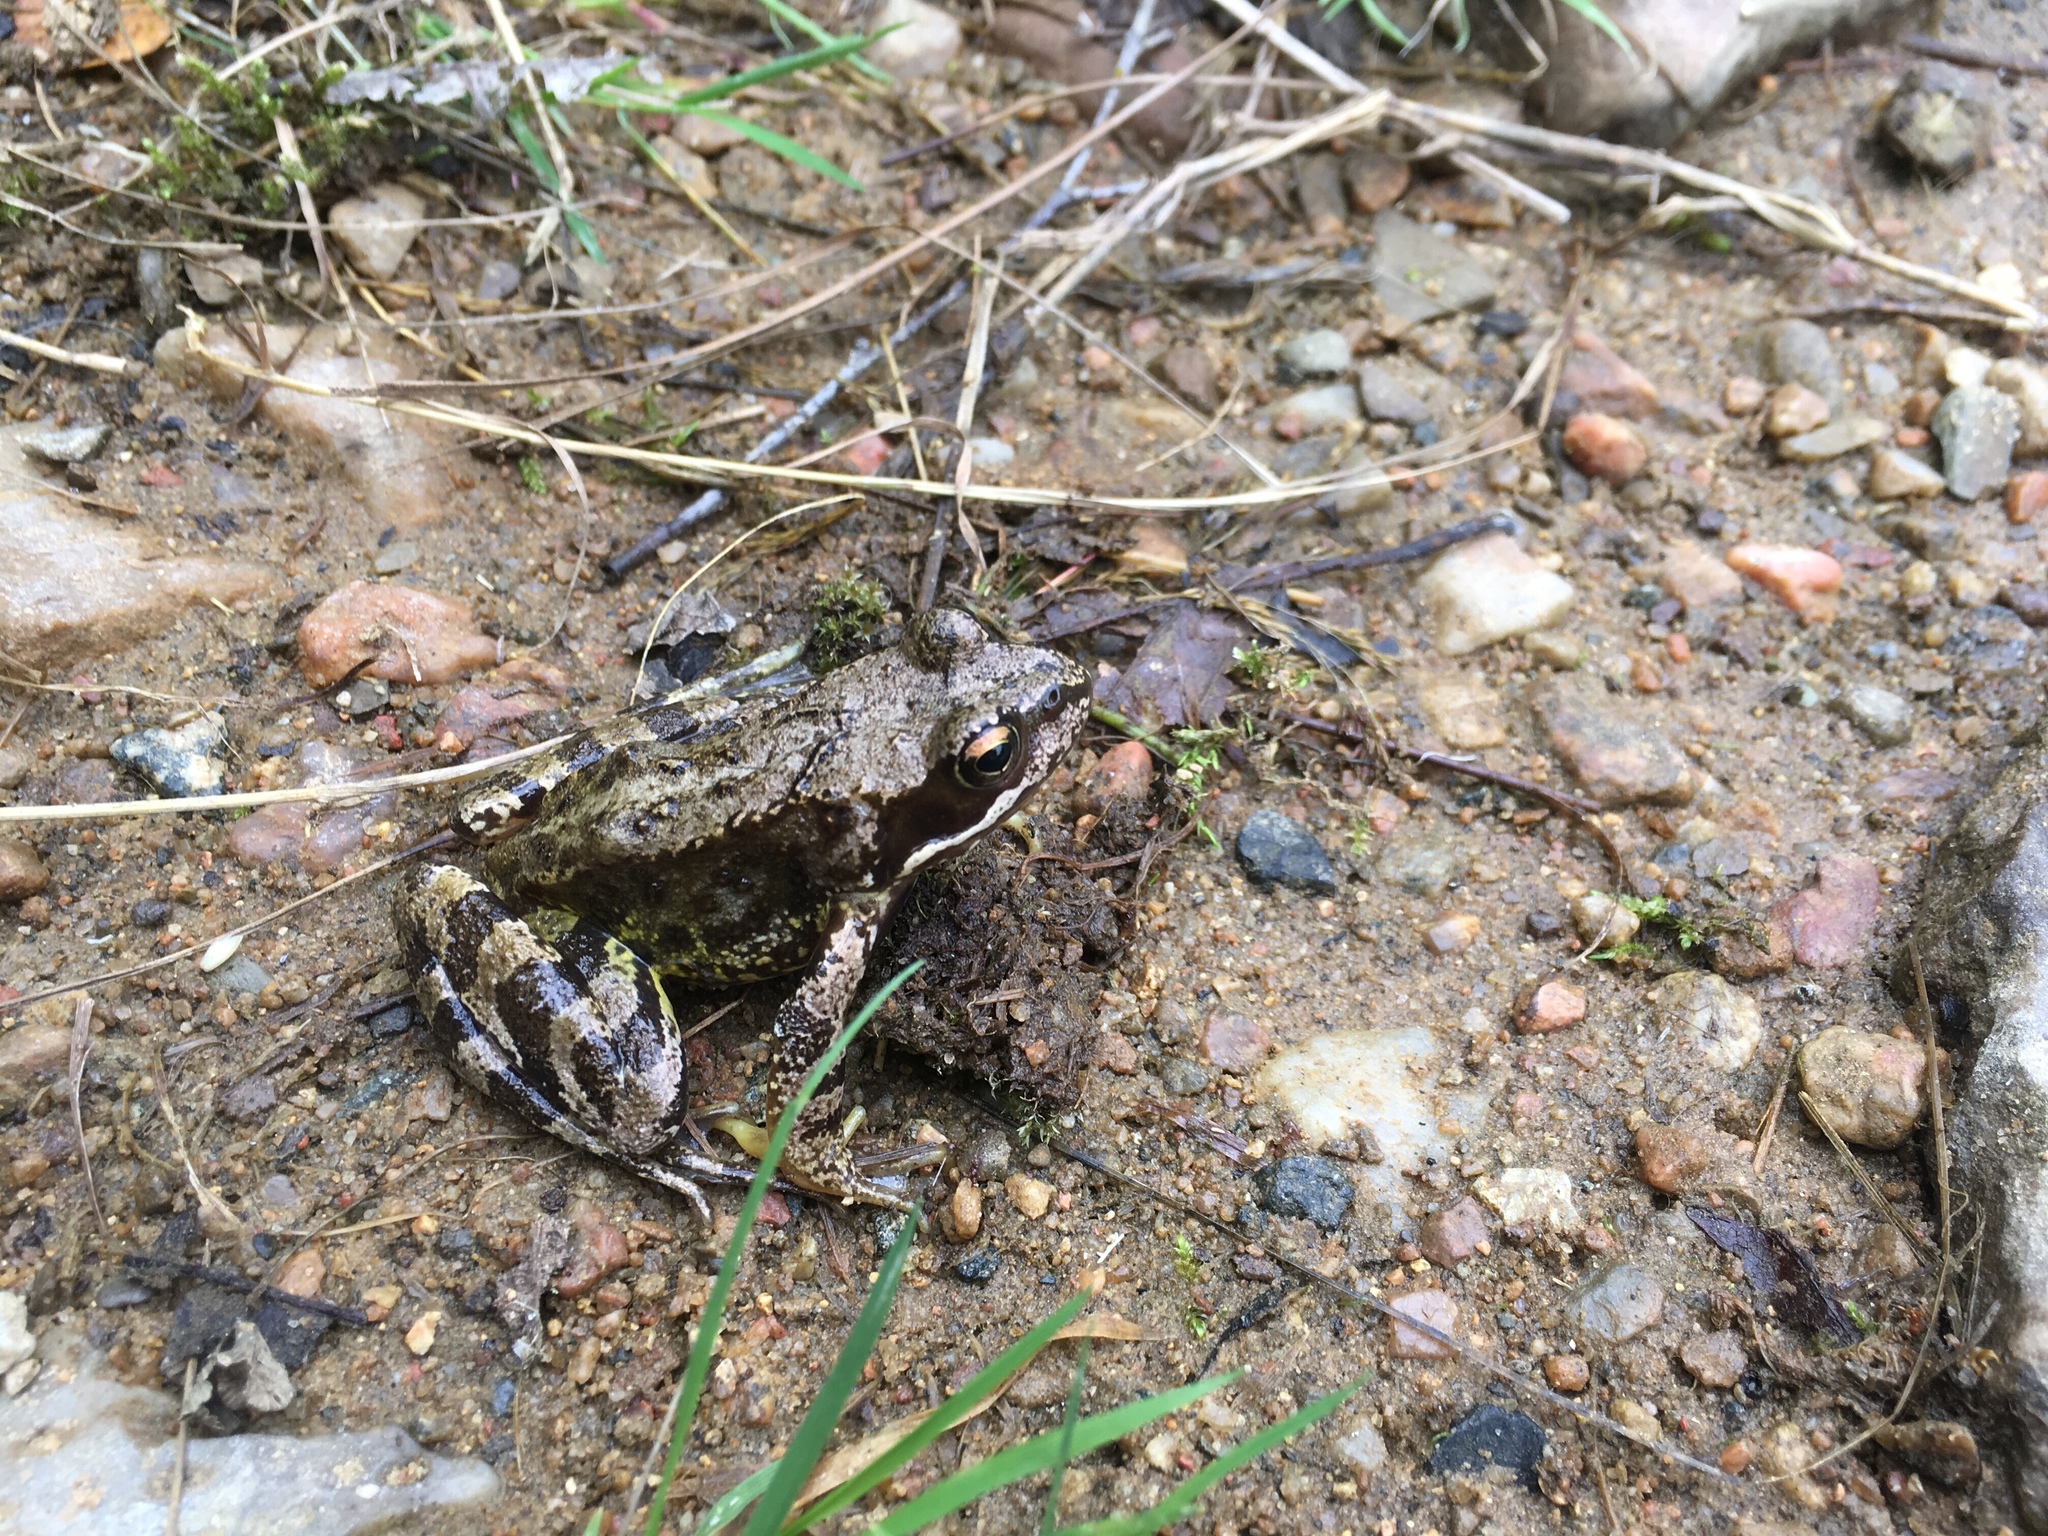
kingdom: Animalia
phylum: Chordata
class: Amphibia
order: Anura
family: Ranidae
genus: Rana
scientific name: Rana temporaria
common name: Common frog
